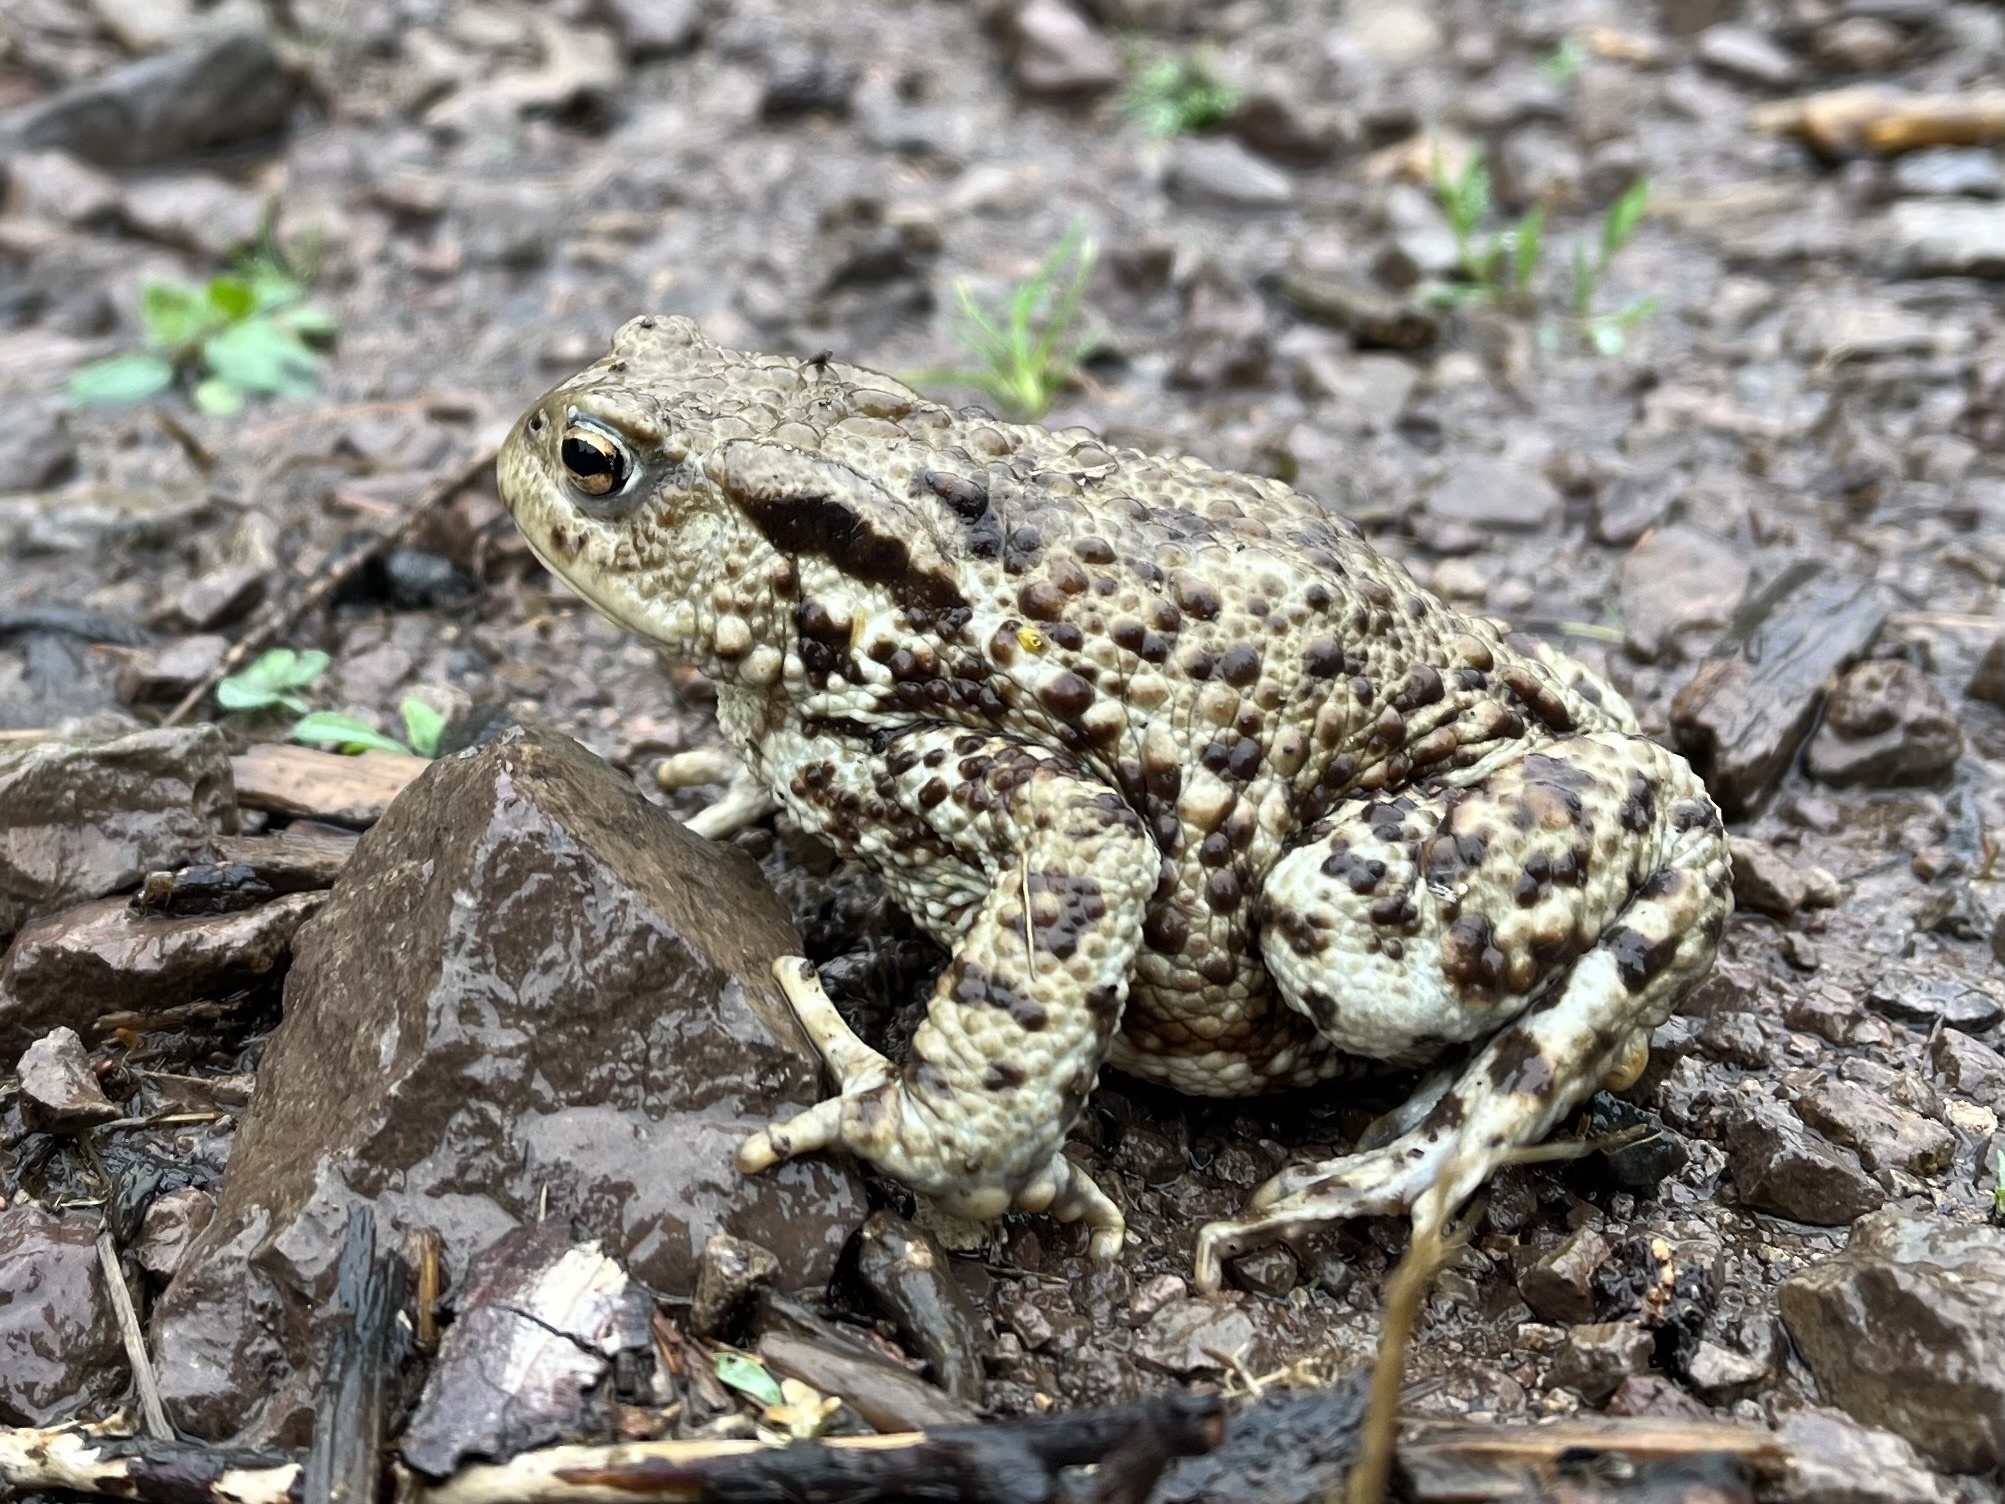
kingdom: Animalia
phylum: Chordata
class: Amphibia
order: Anura
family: Bufonidae
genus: Bufo
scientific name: Bufo bufo
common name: Common toad
